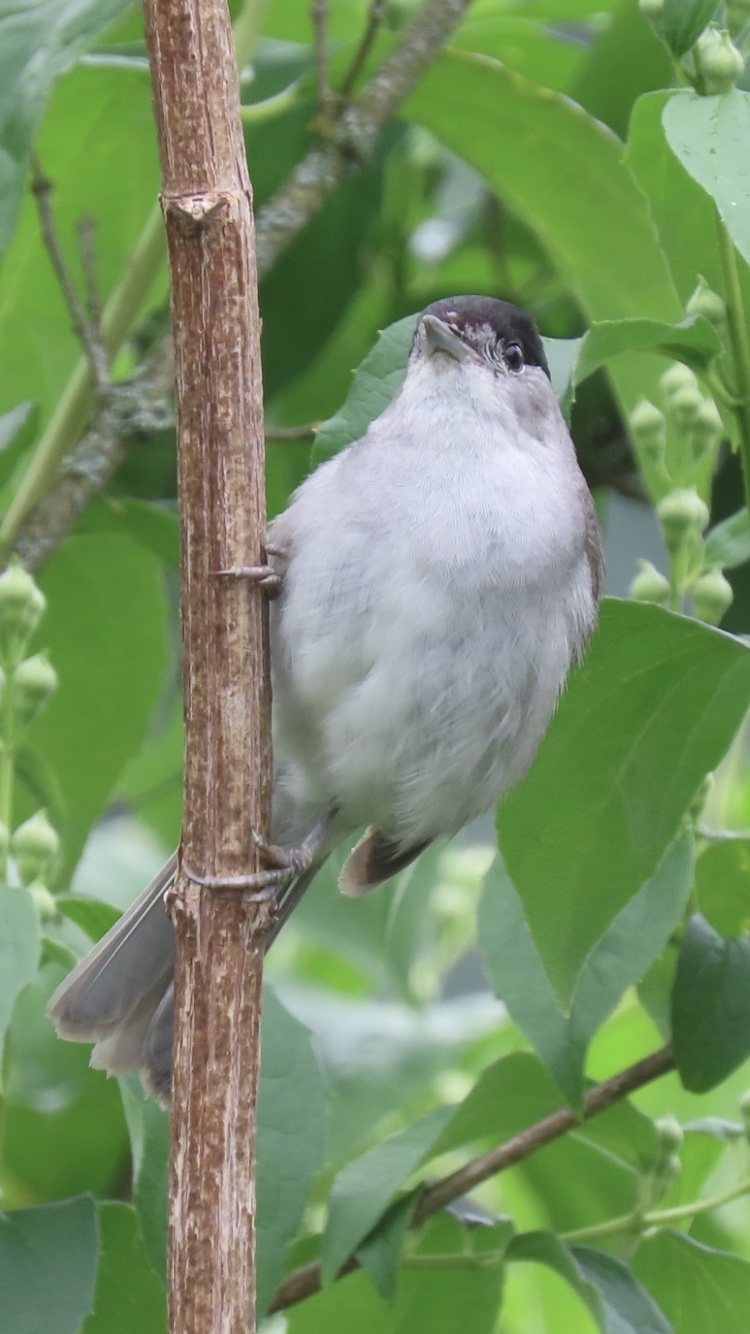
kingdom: Animalia
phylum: Chordata
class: Aves
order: Passeriformes
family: Sylviidae
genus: Sylvia
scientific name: Sylvia atricapilla
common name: Eurasian blackcap
